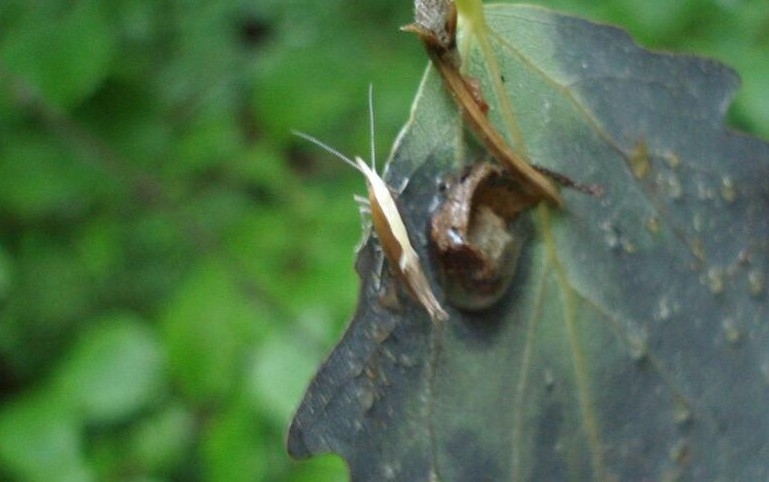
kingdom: Animalia
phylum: Arthropoda
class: Insecta
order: Lepidoptera
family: Ypsolophidae
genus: Ypsolopha
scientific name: Ypsolopha dentella
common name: Honeysuckle moth
